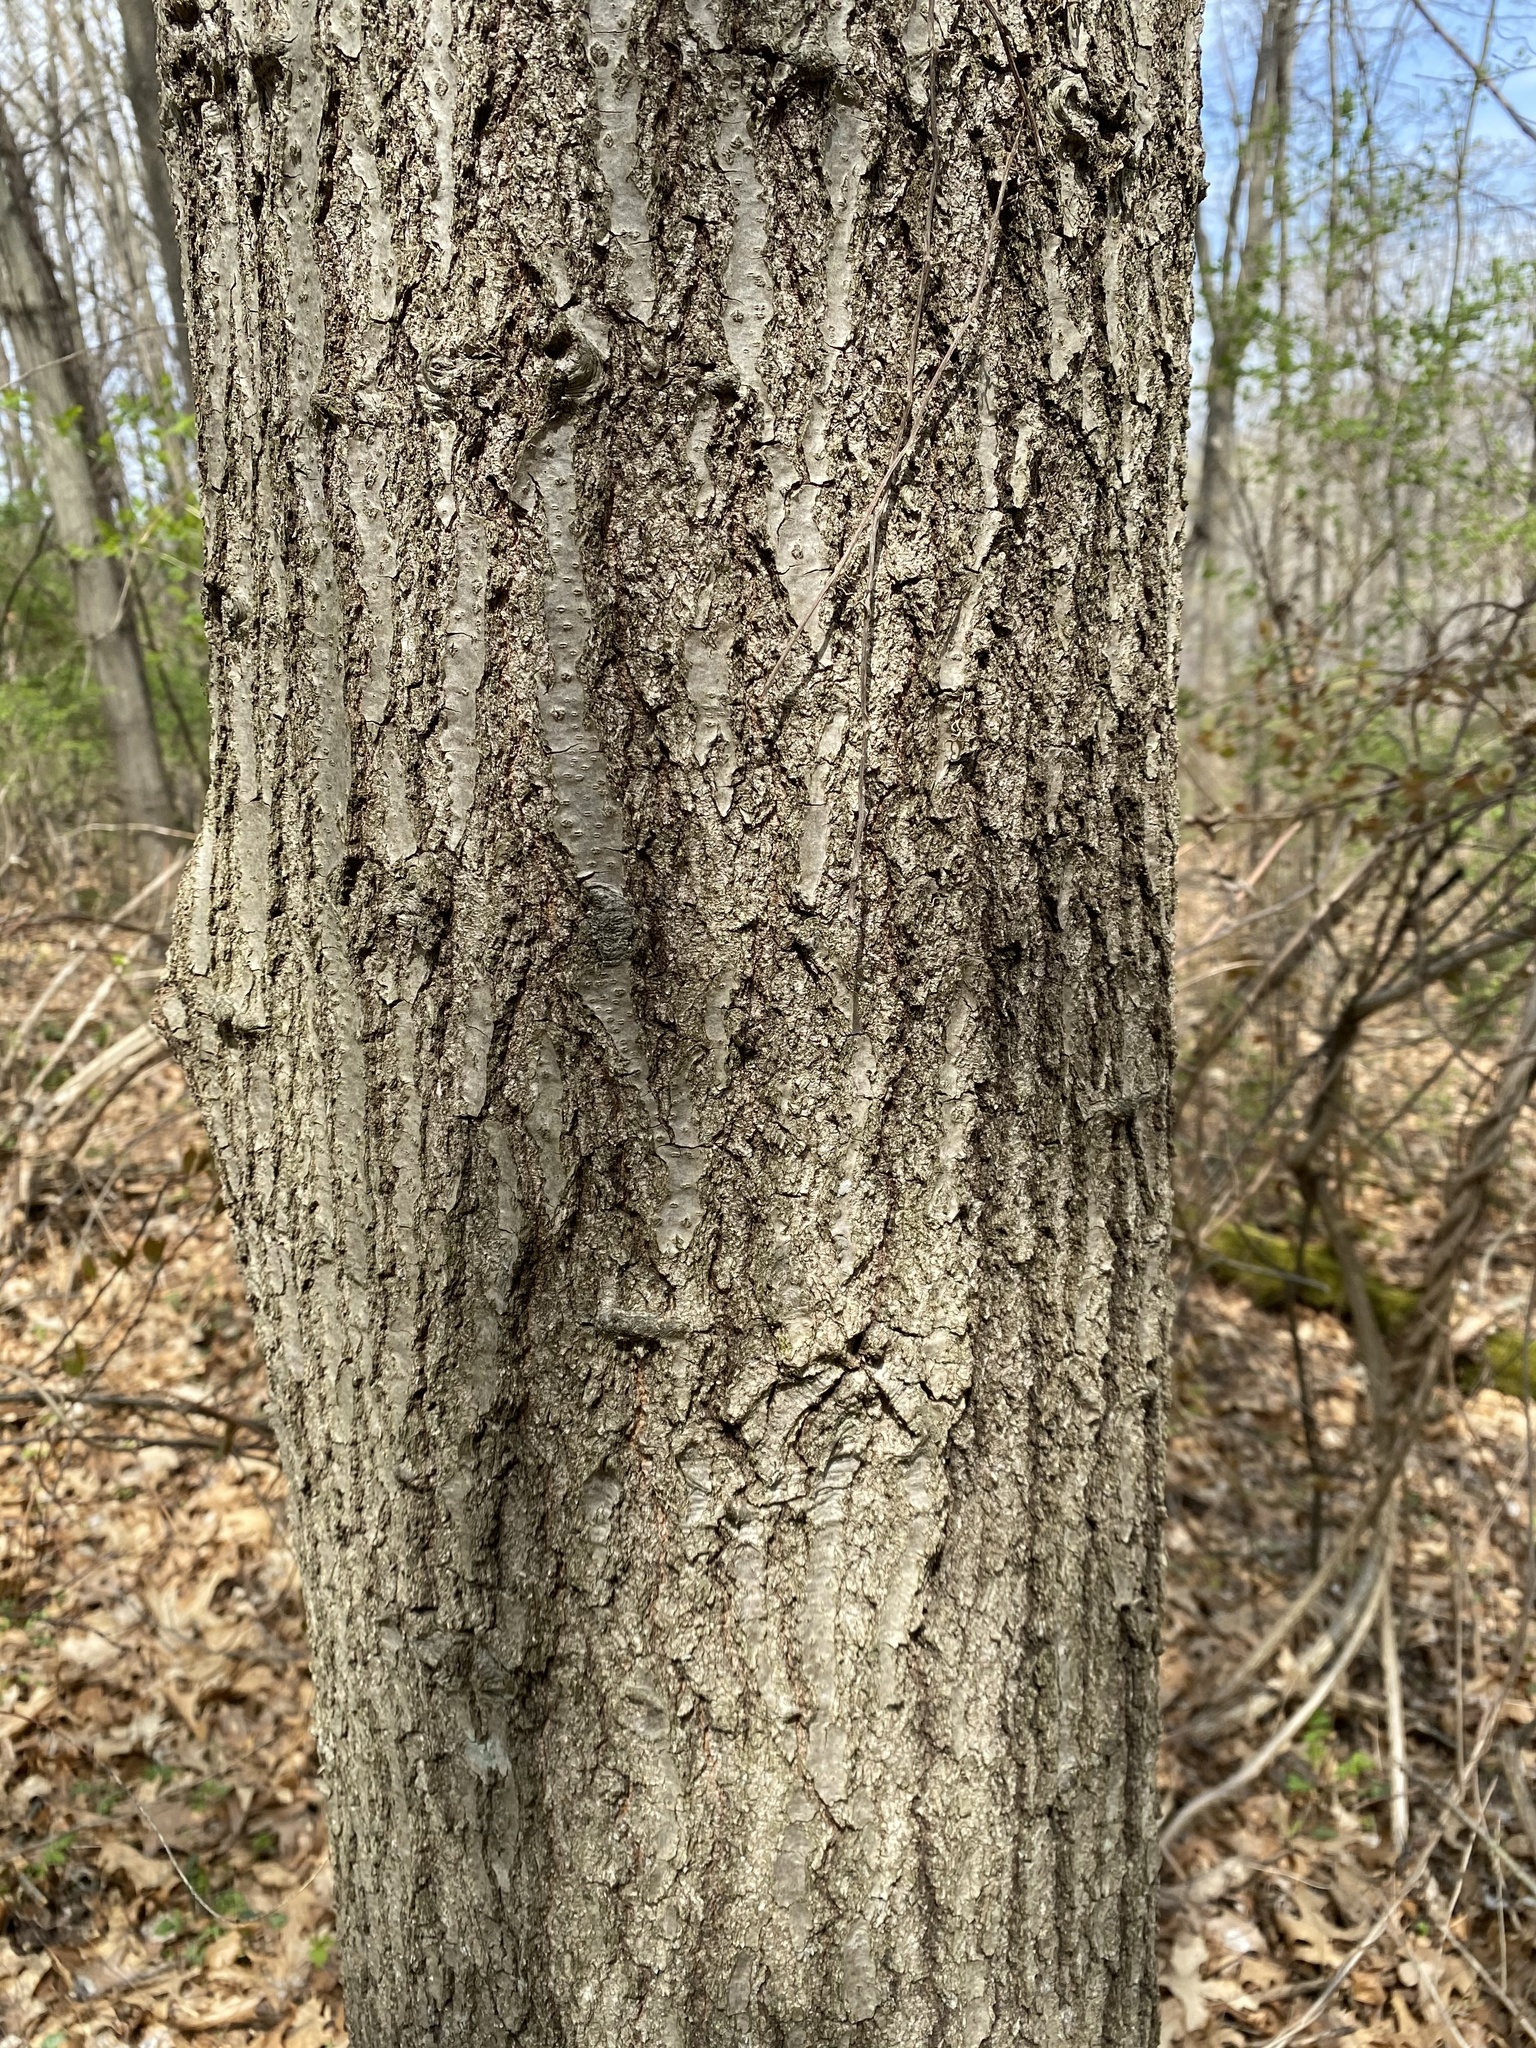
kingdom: Plantae
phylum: Tracheophyta
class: Magnoliopsida
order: Fagales
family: Fagaceae
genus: Quercus
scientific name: Quercus rubra
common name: Red oak
